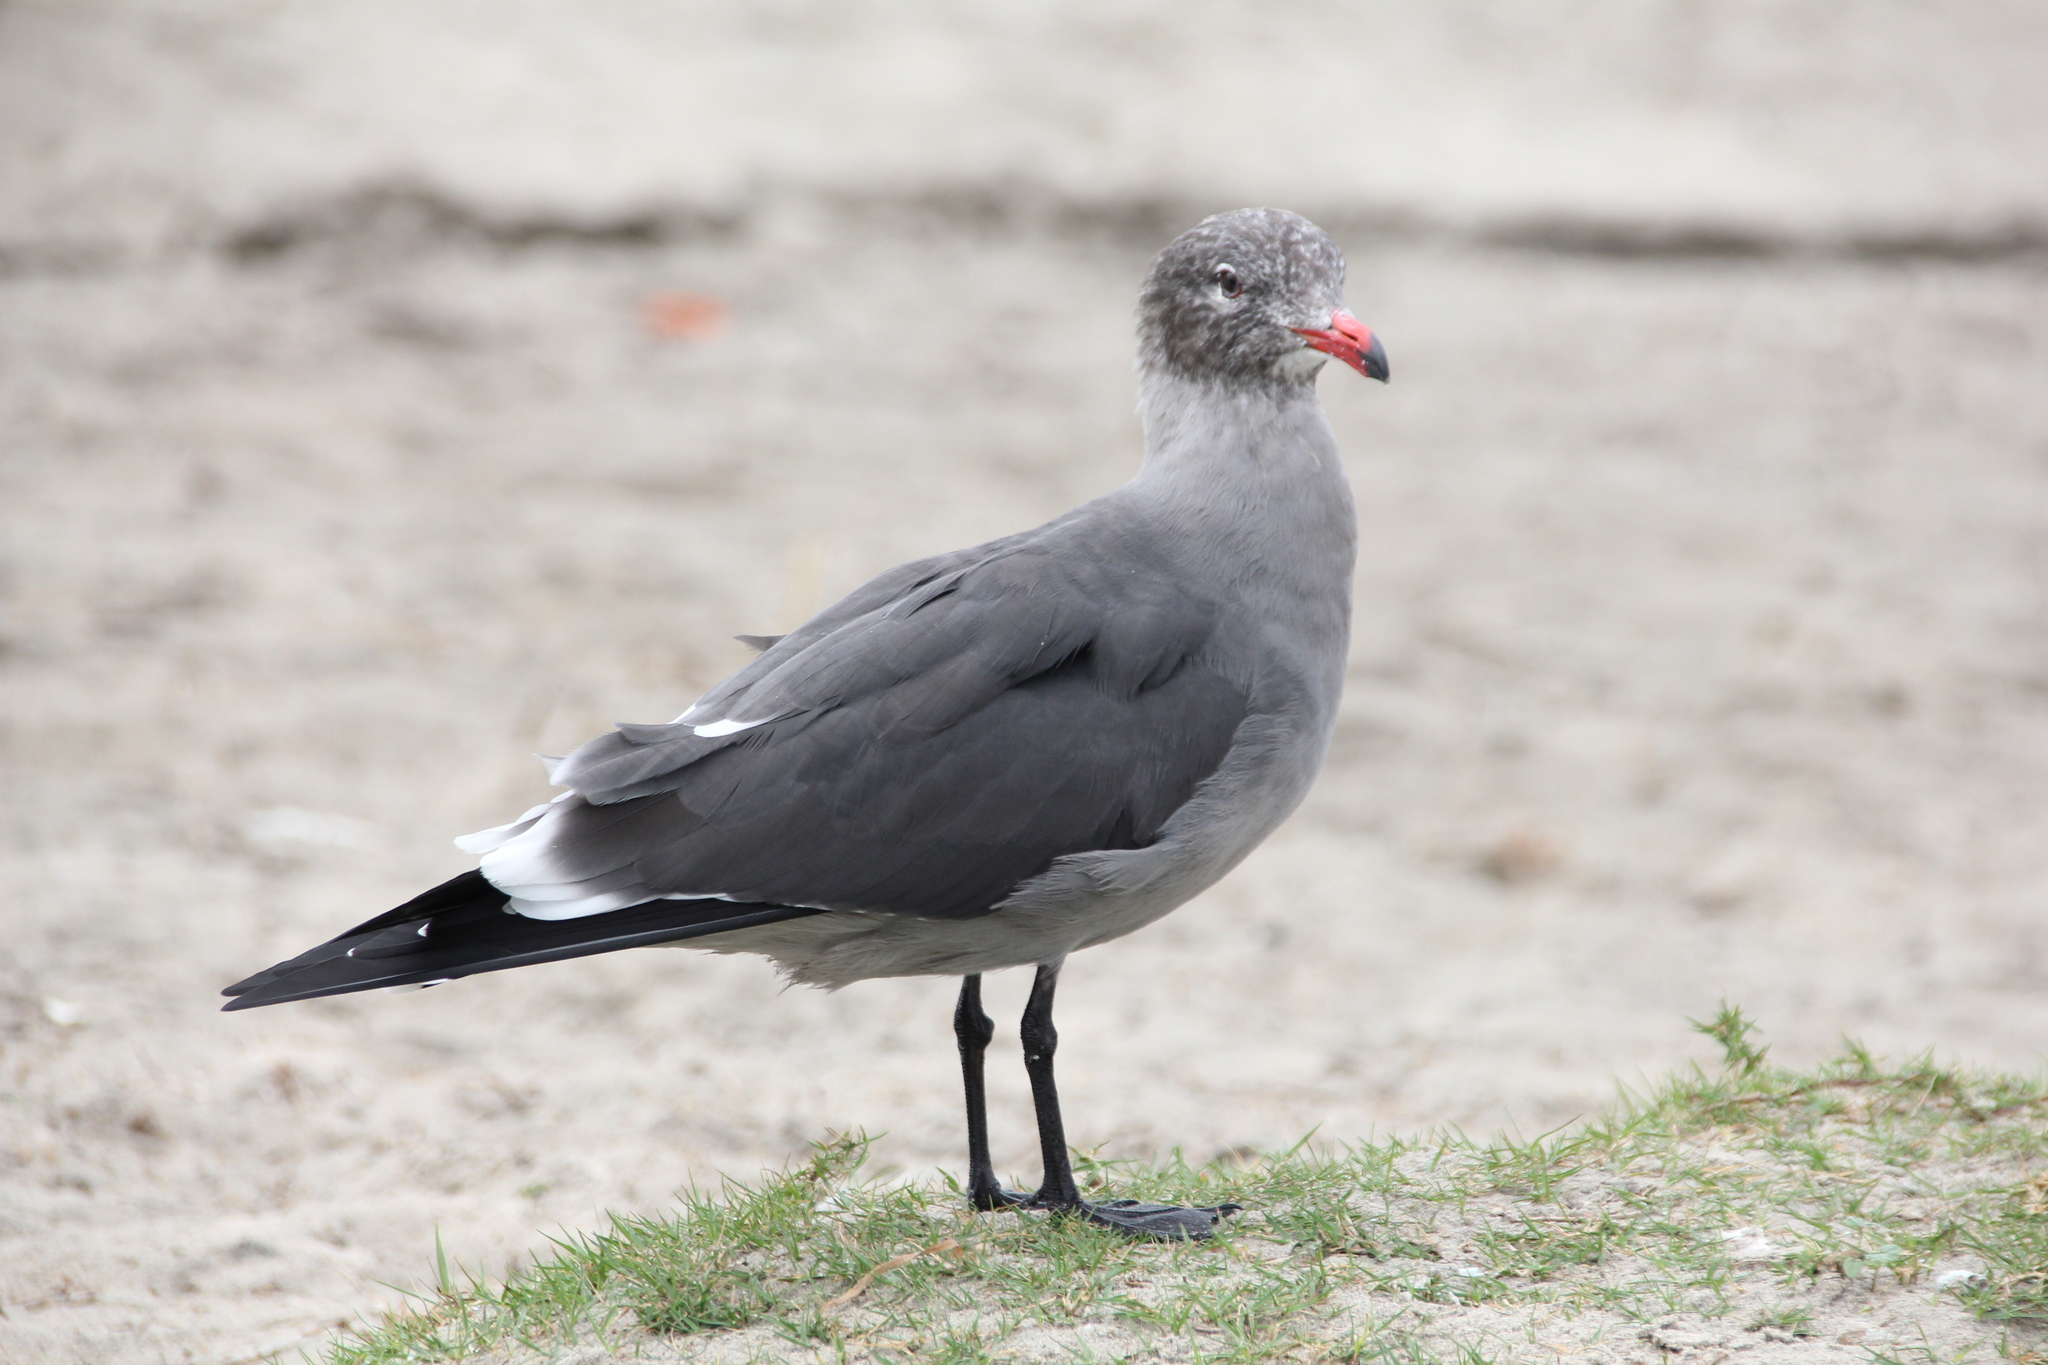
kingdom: Animalia
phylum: Chordata
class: Aves
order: Charadriiformes
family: Laridae
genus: Larus
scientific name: Larus heermanni
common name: Heermann's gull
